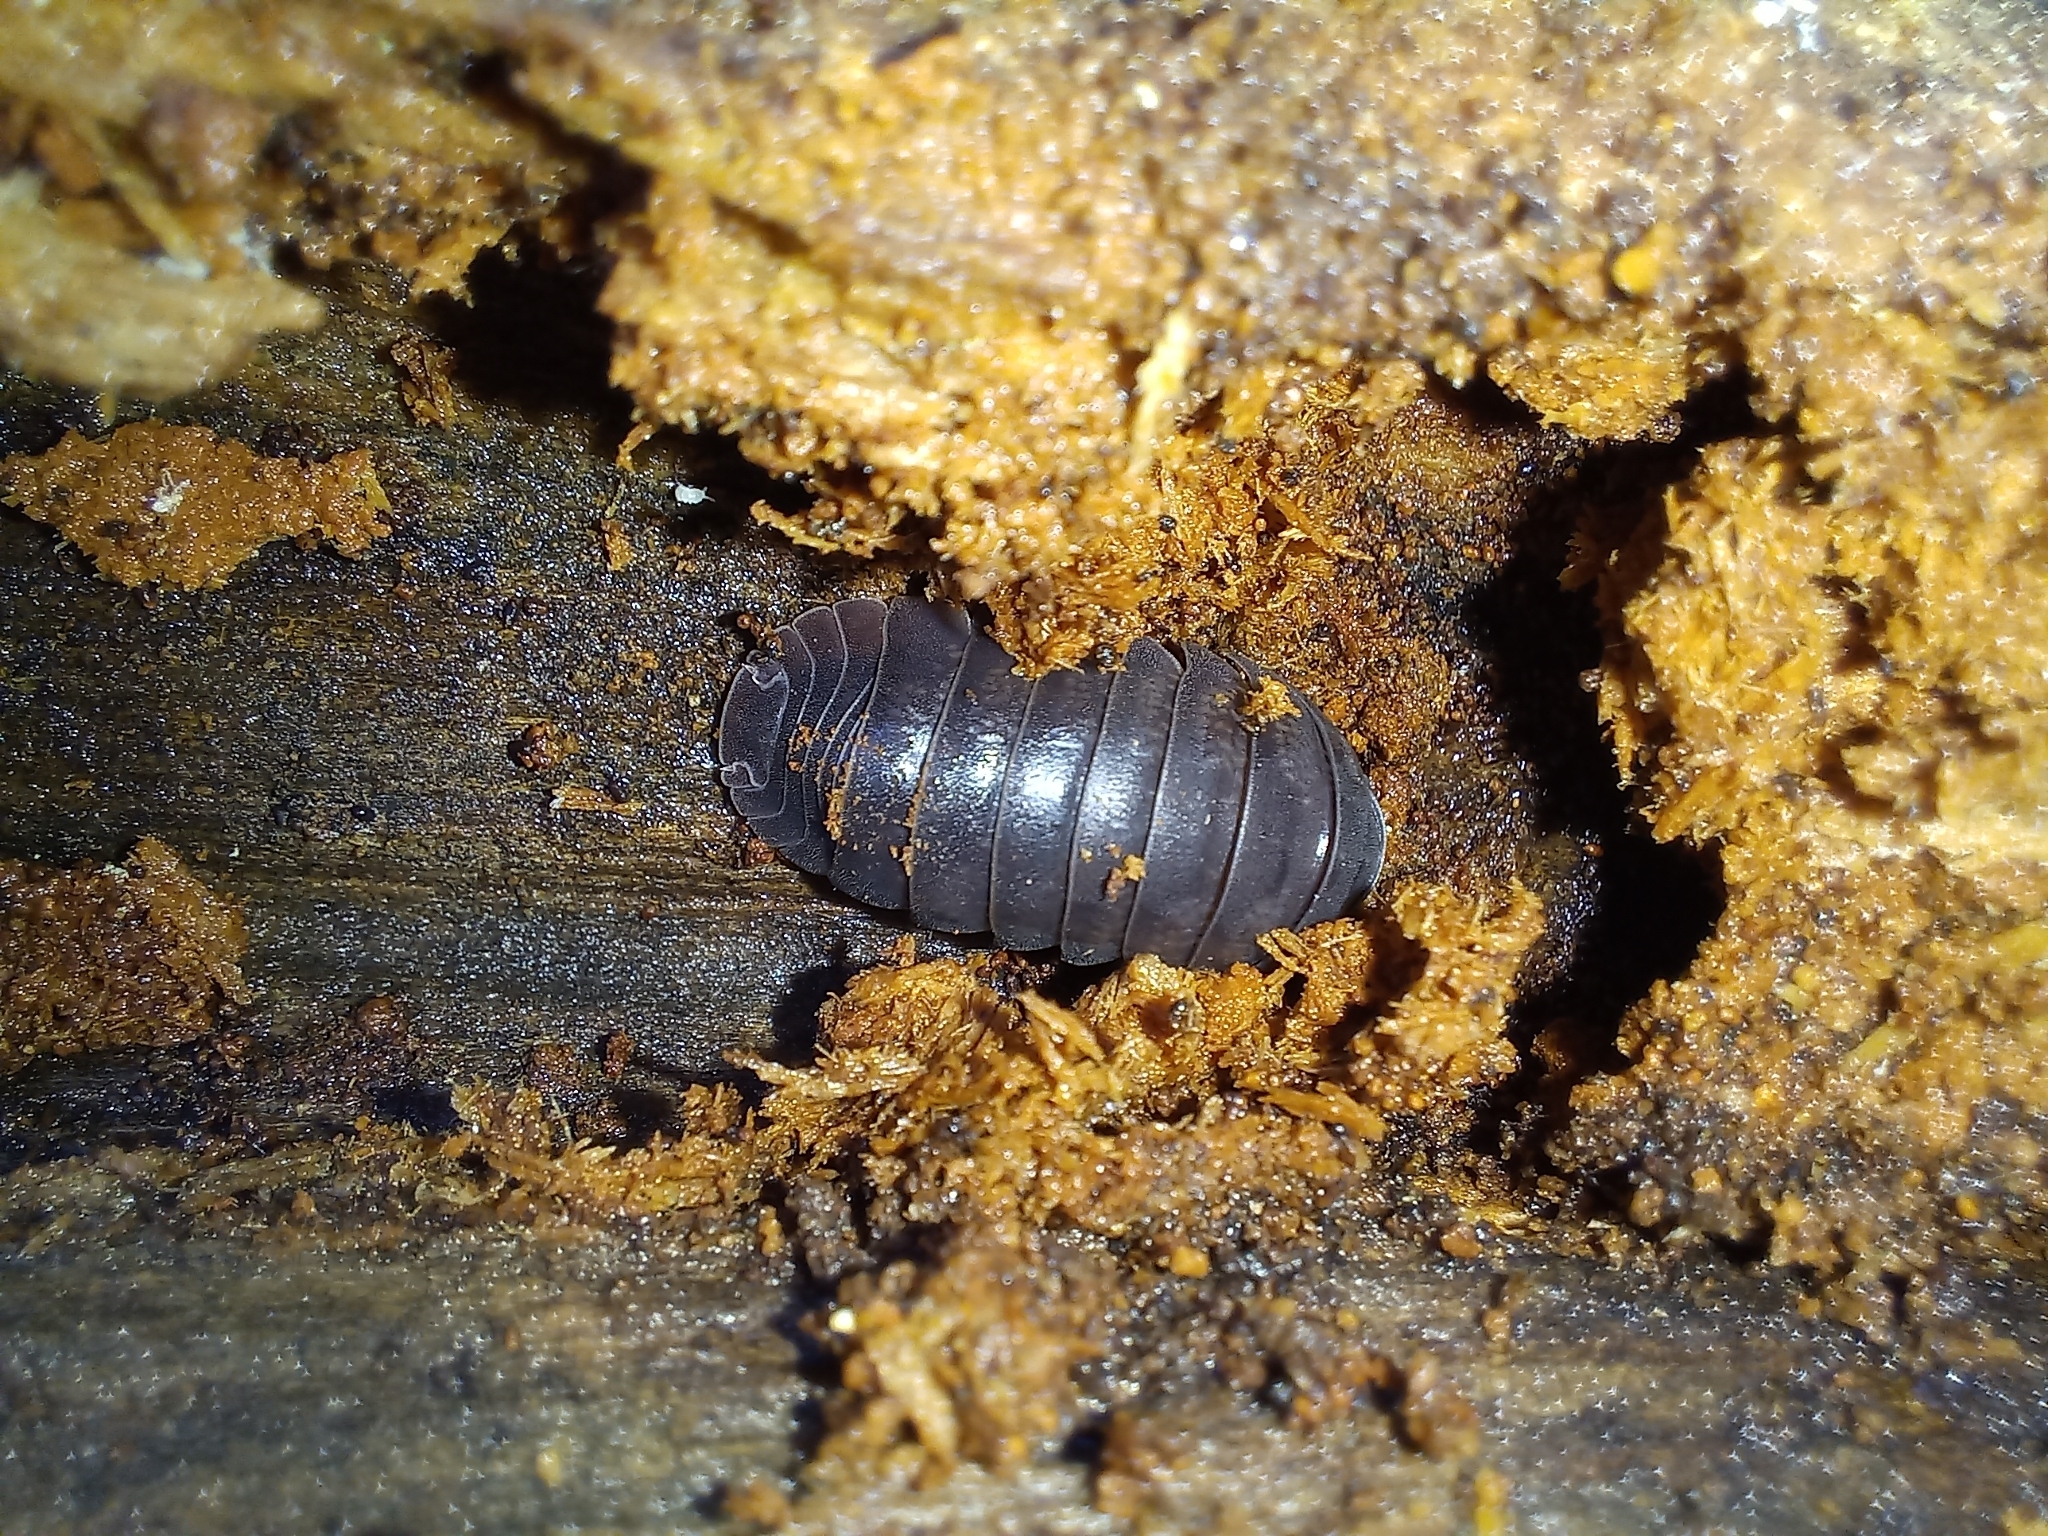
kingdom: Animalia
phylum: Arthropoda
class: Malacostraca
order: Isopoda
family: Armadillidiidae
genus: Armadillidium
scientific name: Armadillidium vulgare
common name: Common pill woodlouse
